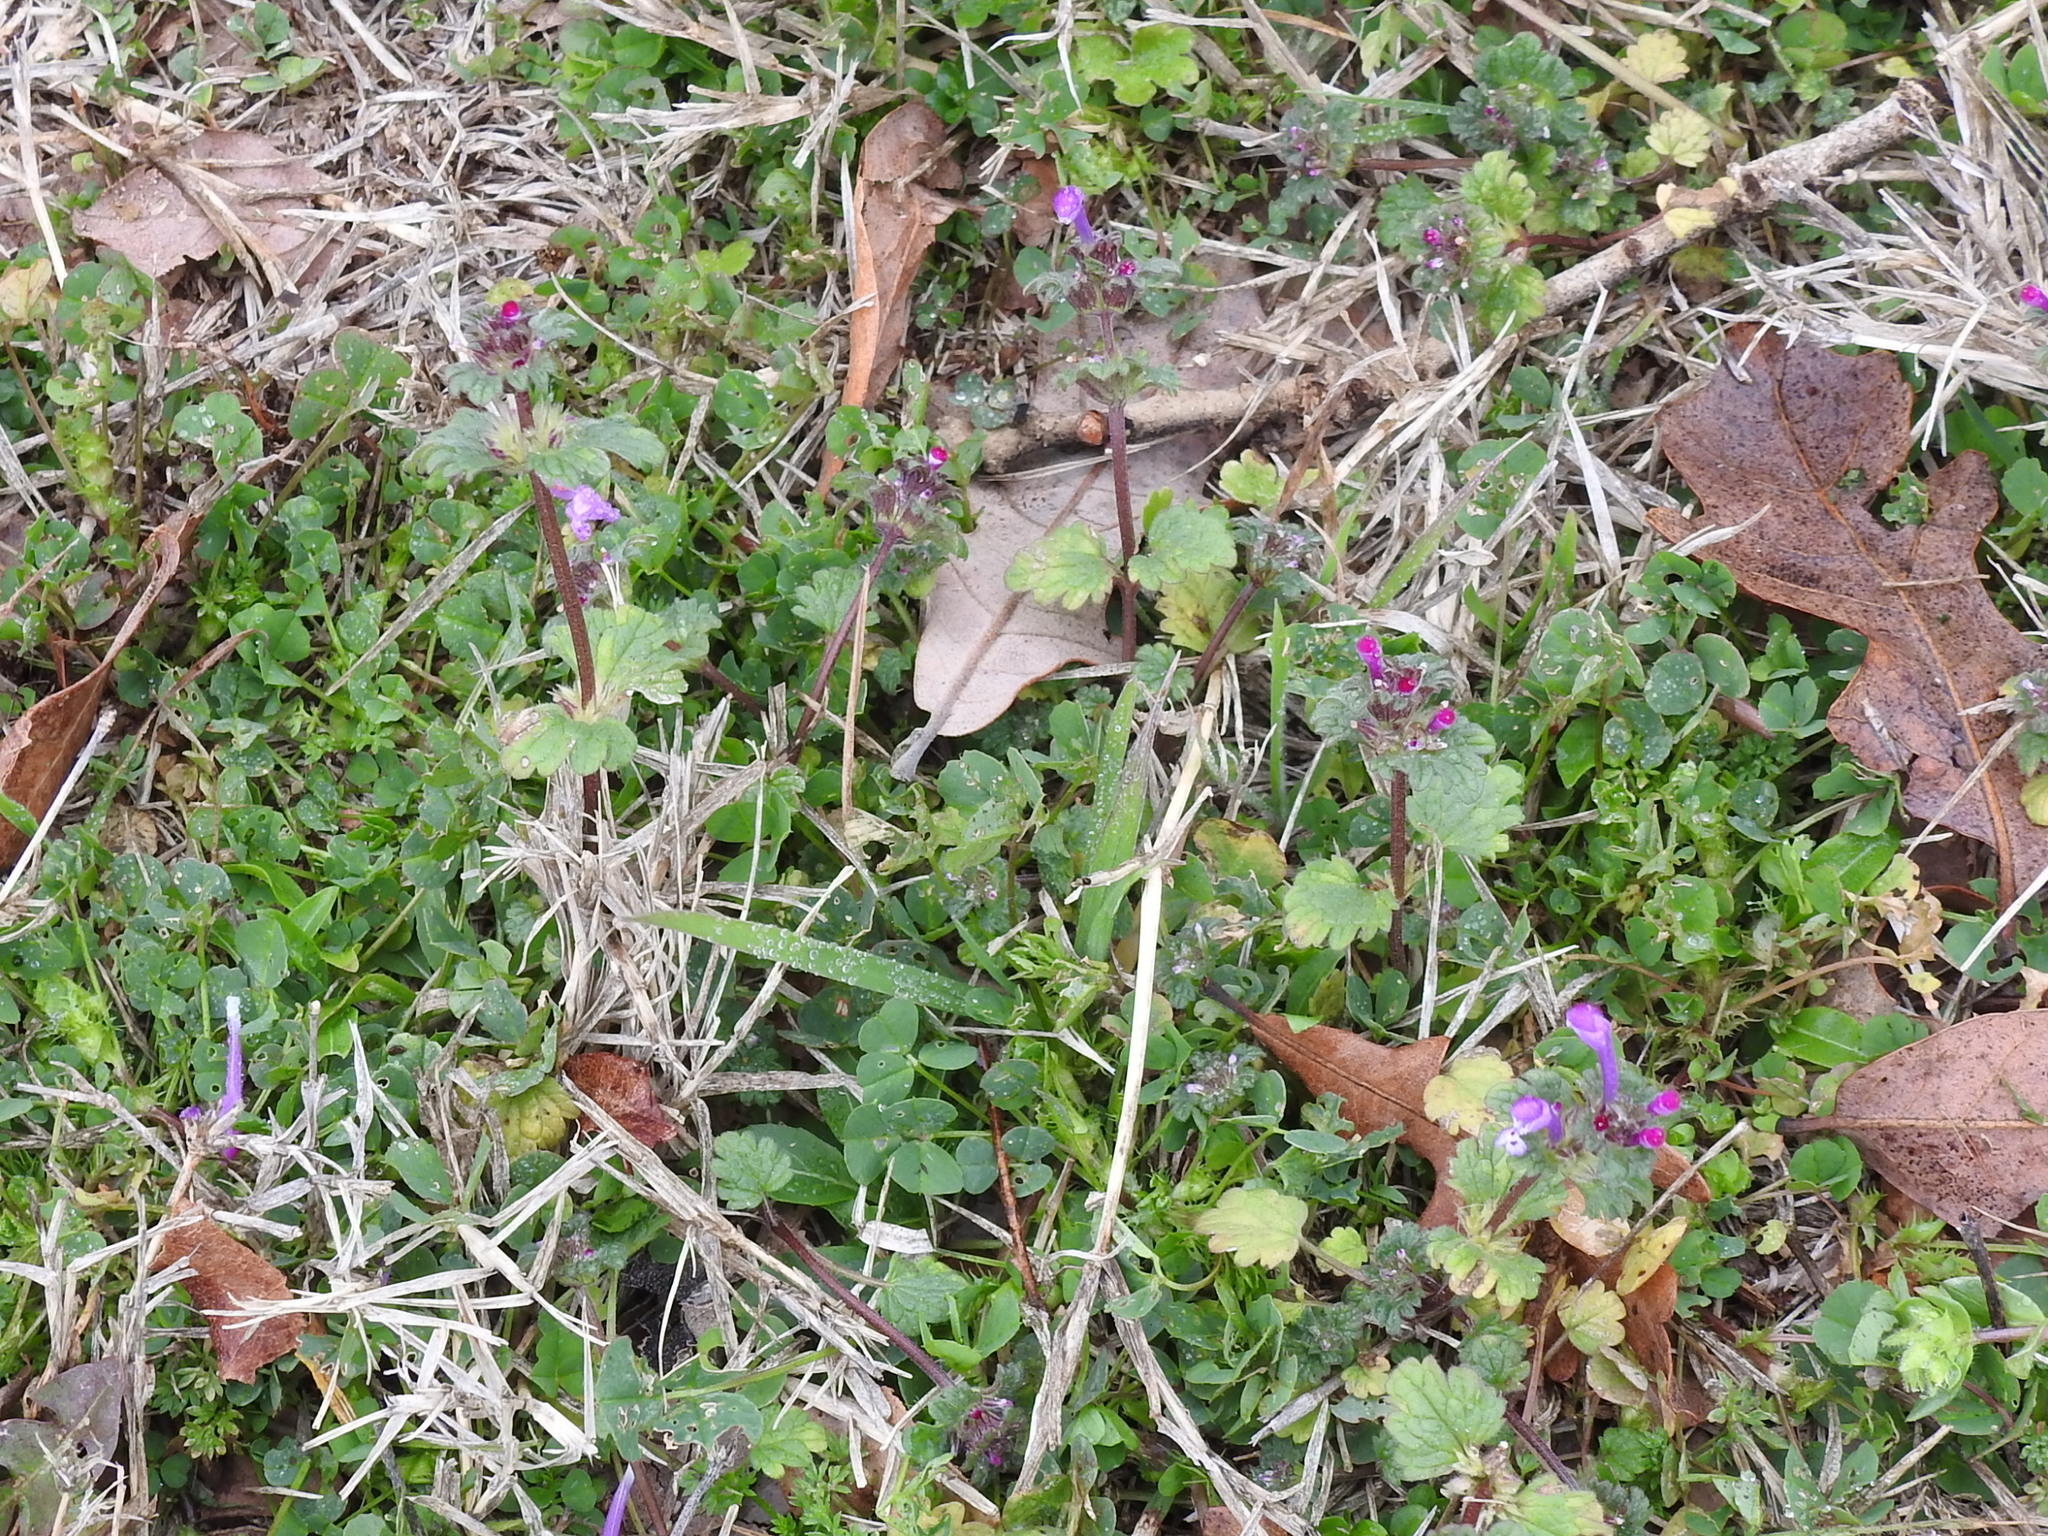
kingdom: Plantae
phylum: Tracheophyta
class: Magnoliopsida
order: Lamiales
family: Lamiaceae
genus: Lamium
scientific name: Lamium amplexicaule
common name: Henbit dead-nettle
